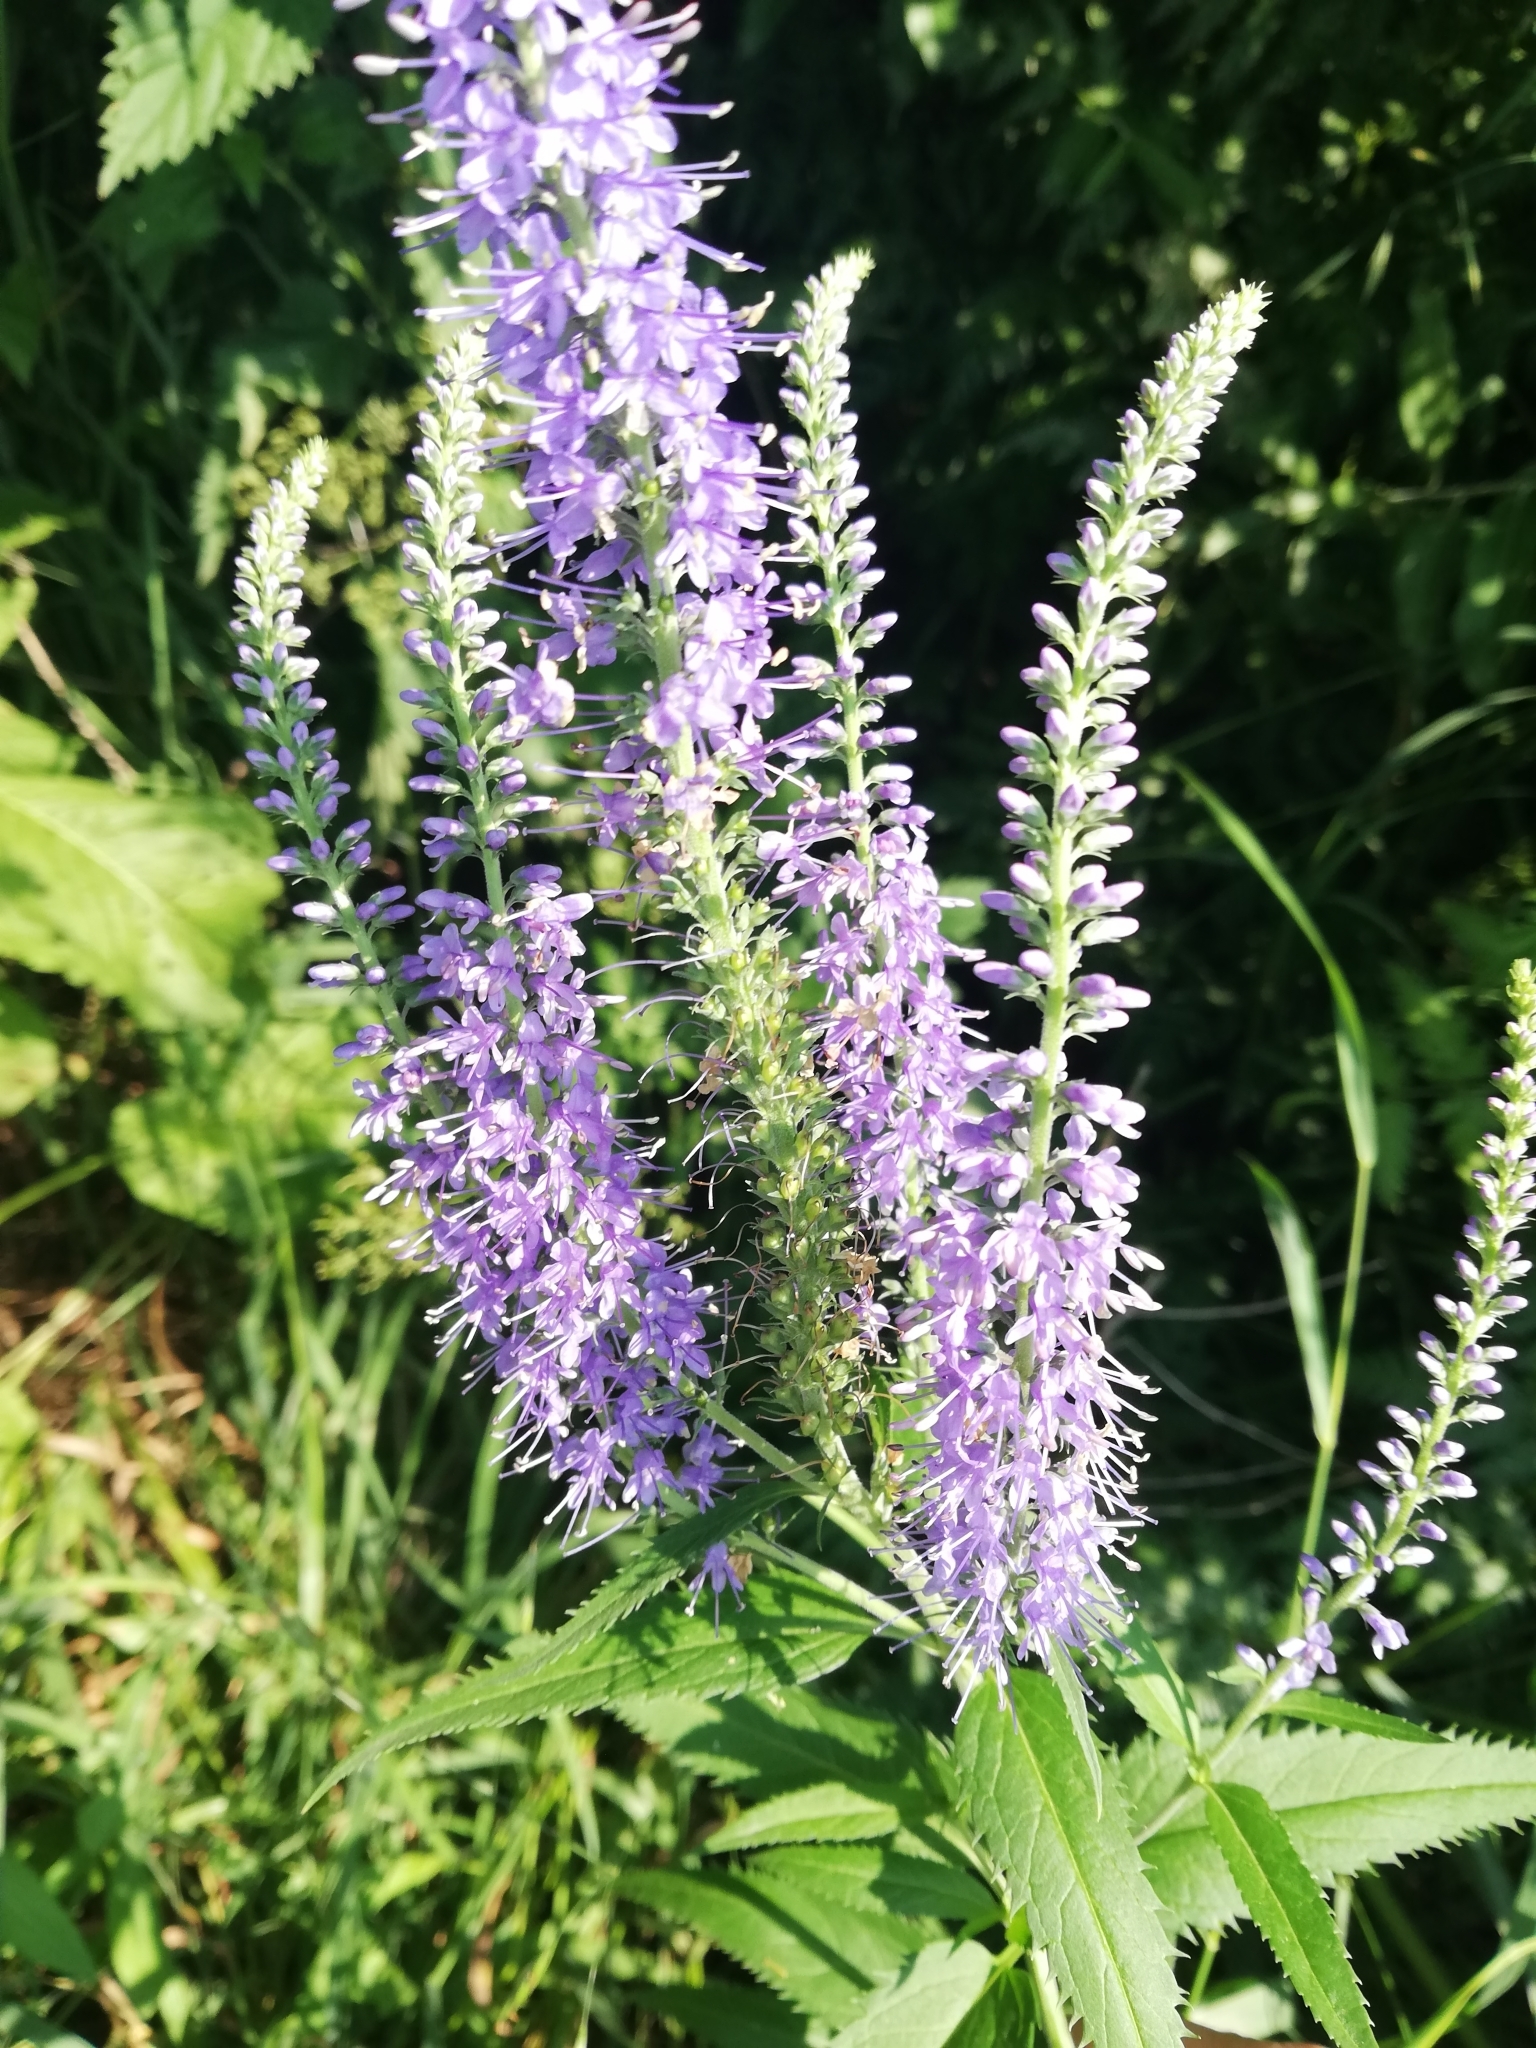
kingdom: Plantae
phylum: Tracheophyta
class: Magnoliopsida
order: Lamiales
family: Plantaginaceae
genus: Veronica
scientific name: Veronica longifolia
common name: Garden speedwell
